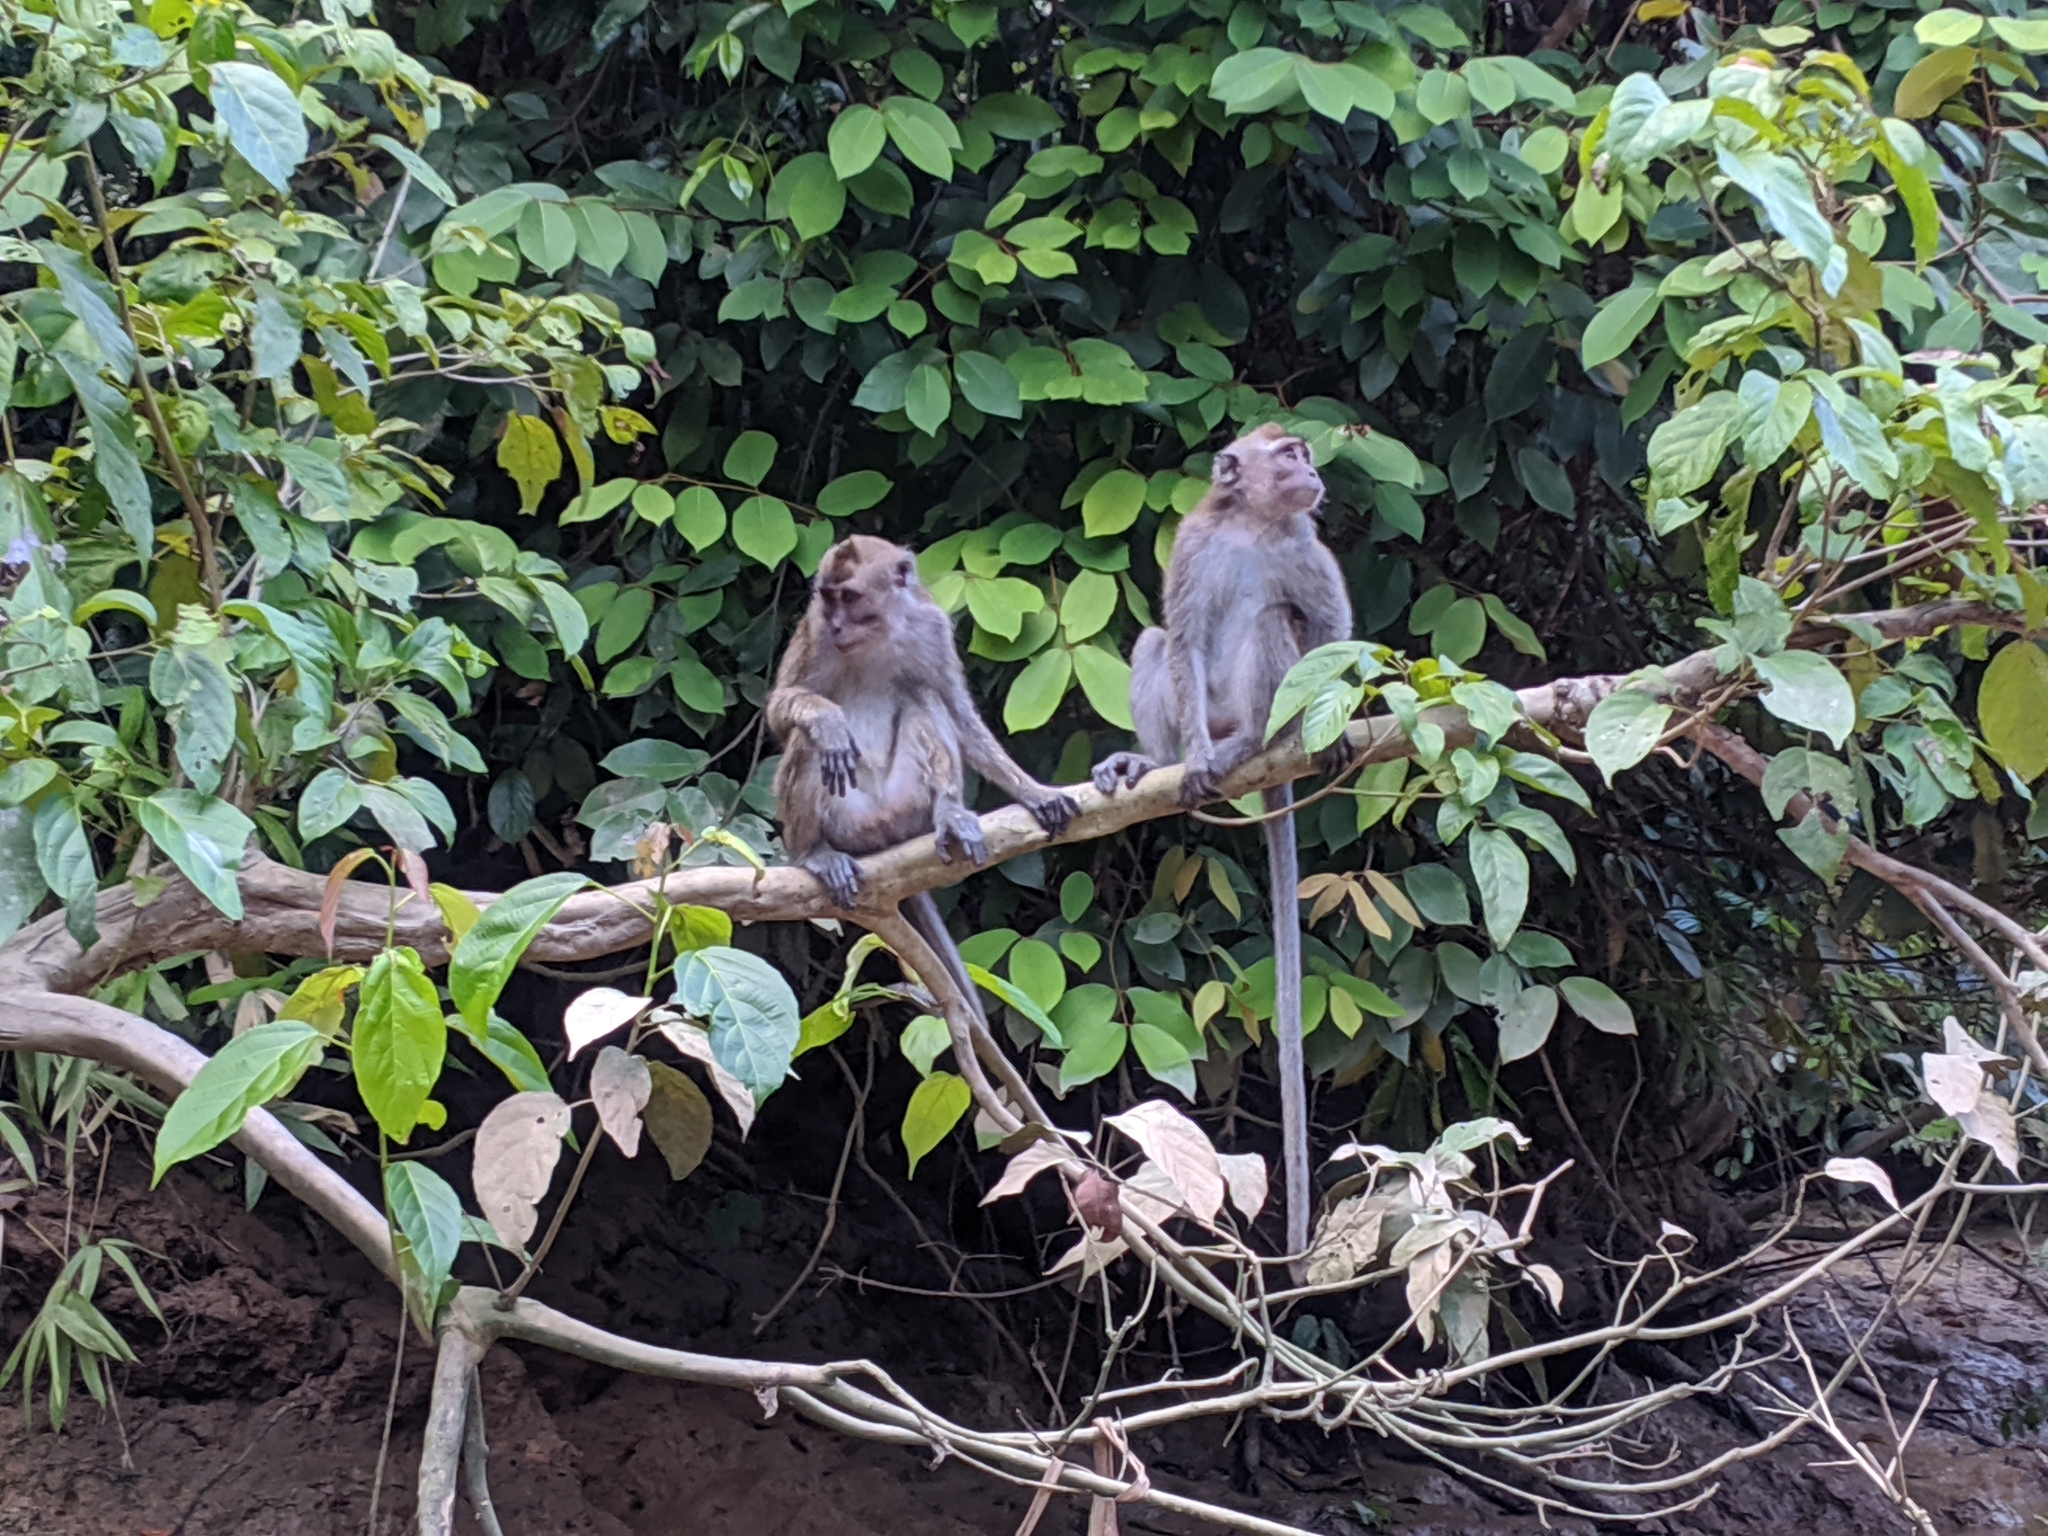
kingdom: Animalia
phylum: Chordata
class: Mammalia
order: Primates
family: Cercopithecidae
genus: Macaca
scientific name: Macaca fascicularis
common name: Crab-eating macaque
